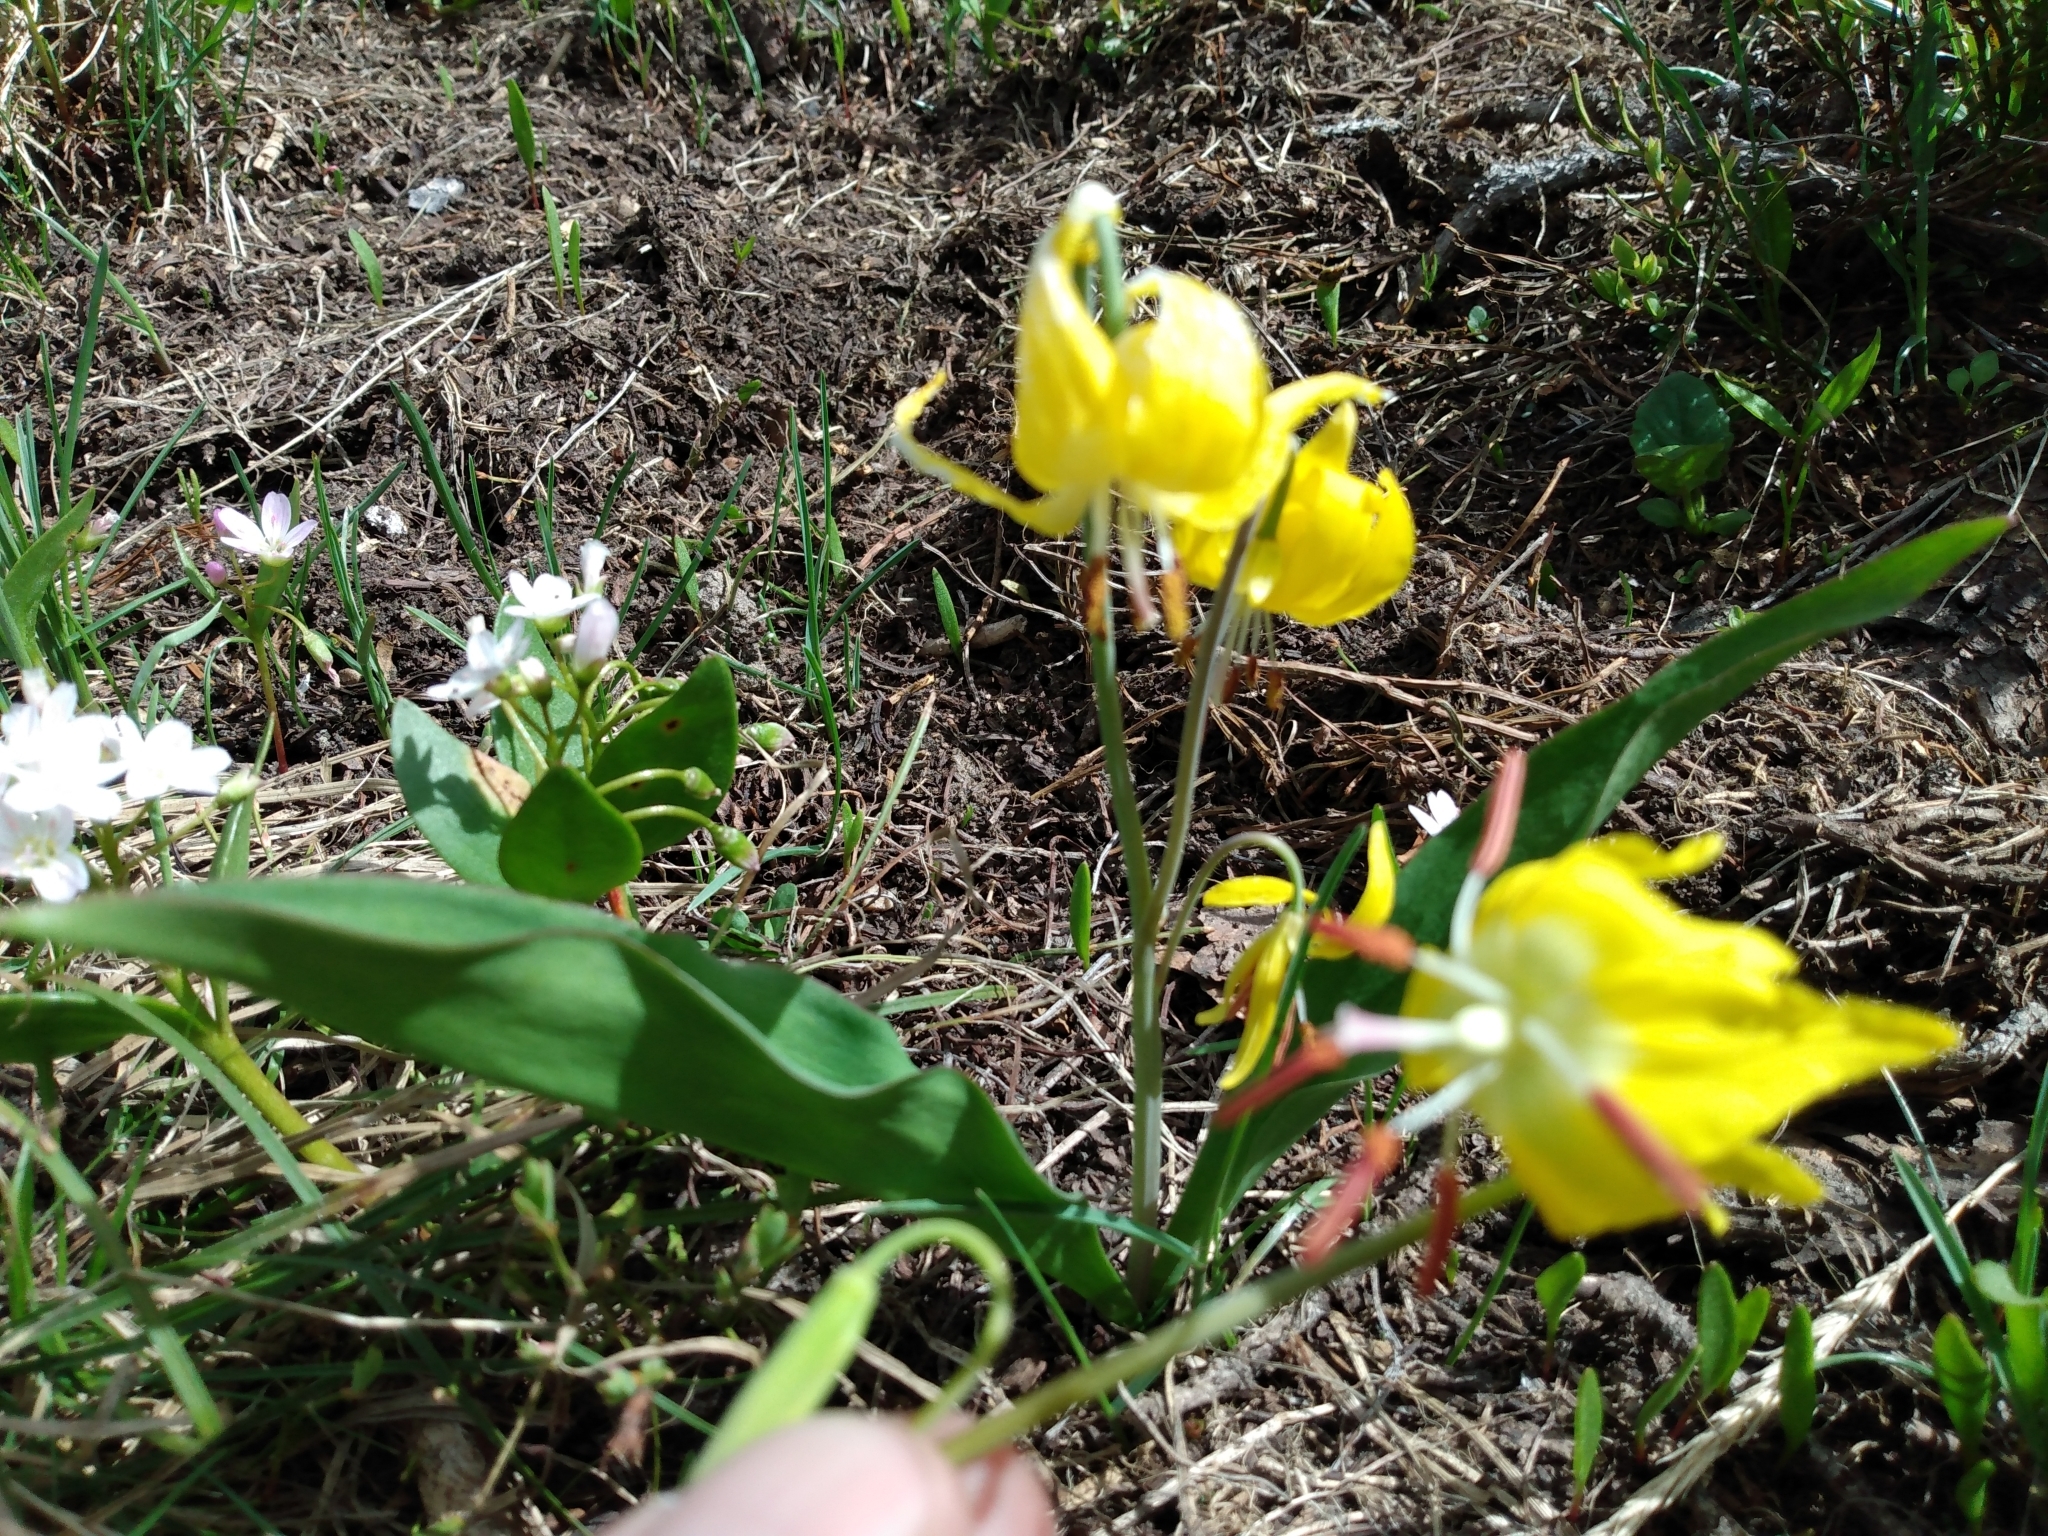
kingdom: Plantae
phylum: Tracheophyta
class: Liliopsida
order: Liliales
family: Liliaceae
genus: Erythronium
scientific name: Erythronium grandiflorum
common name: Avalanche-lily
